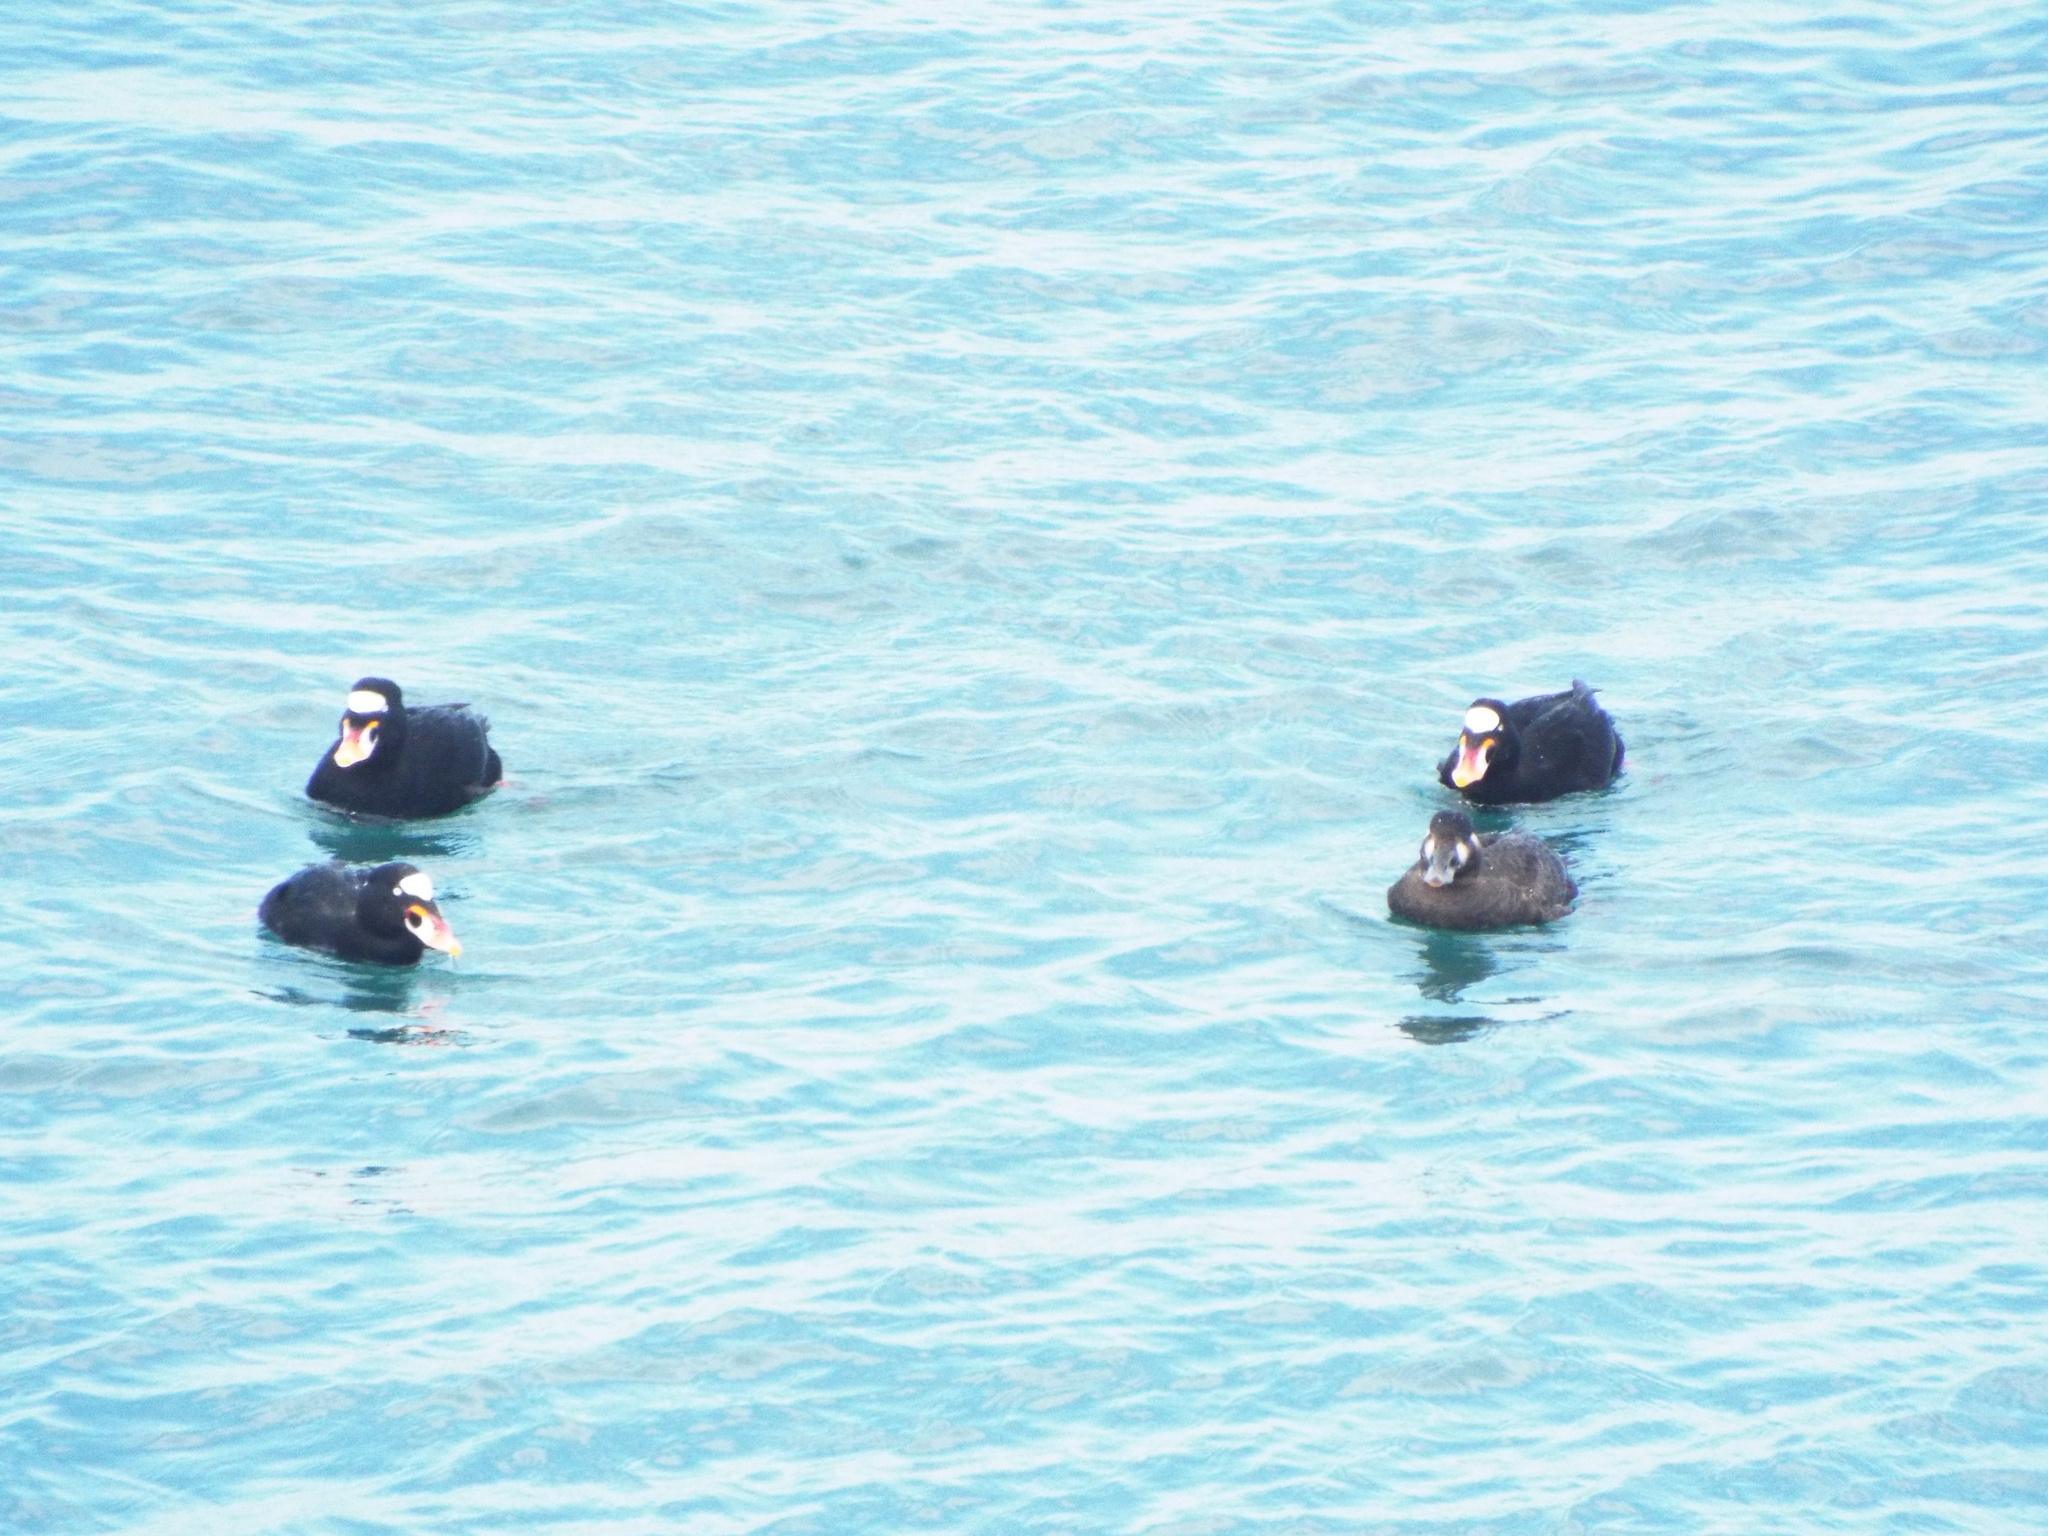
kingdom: Animalia
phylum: Chordata
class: Aves
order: Anseriformes
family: Anatidae
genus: Melanitta
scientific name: Melanitta perspicillata
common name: Surf scoter
